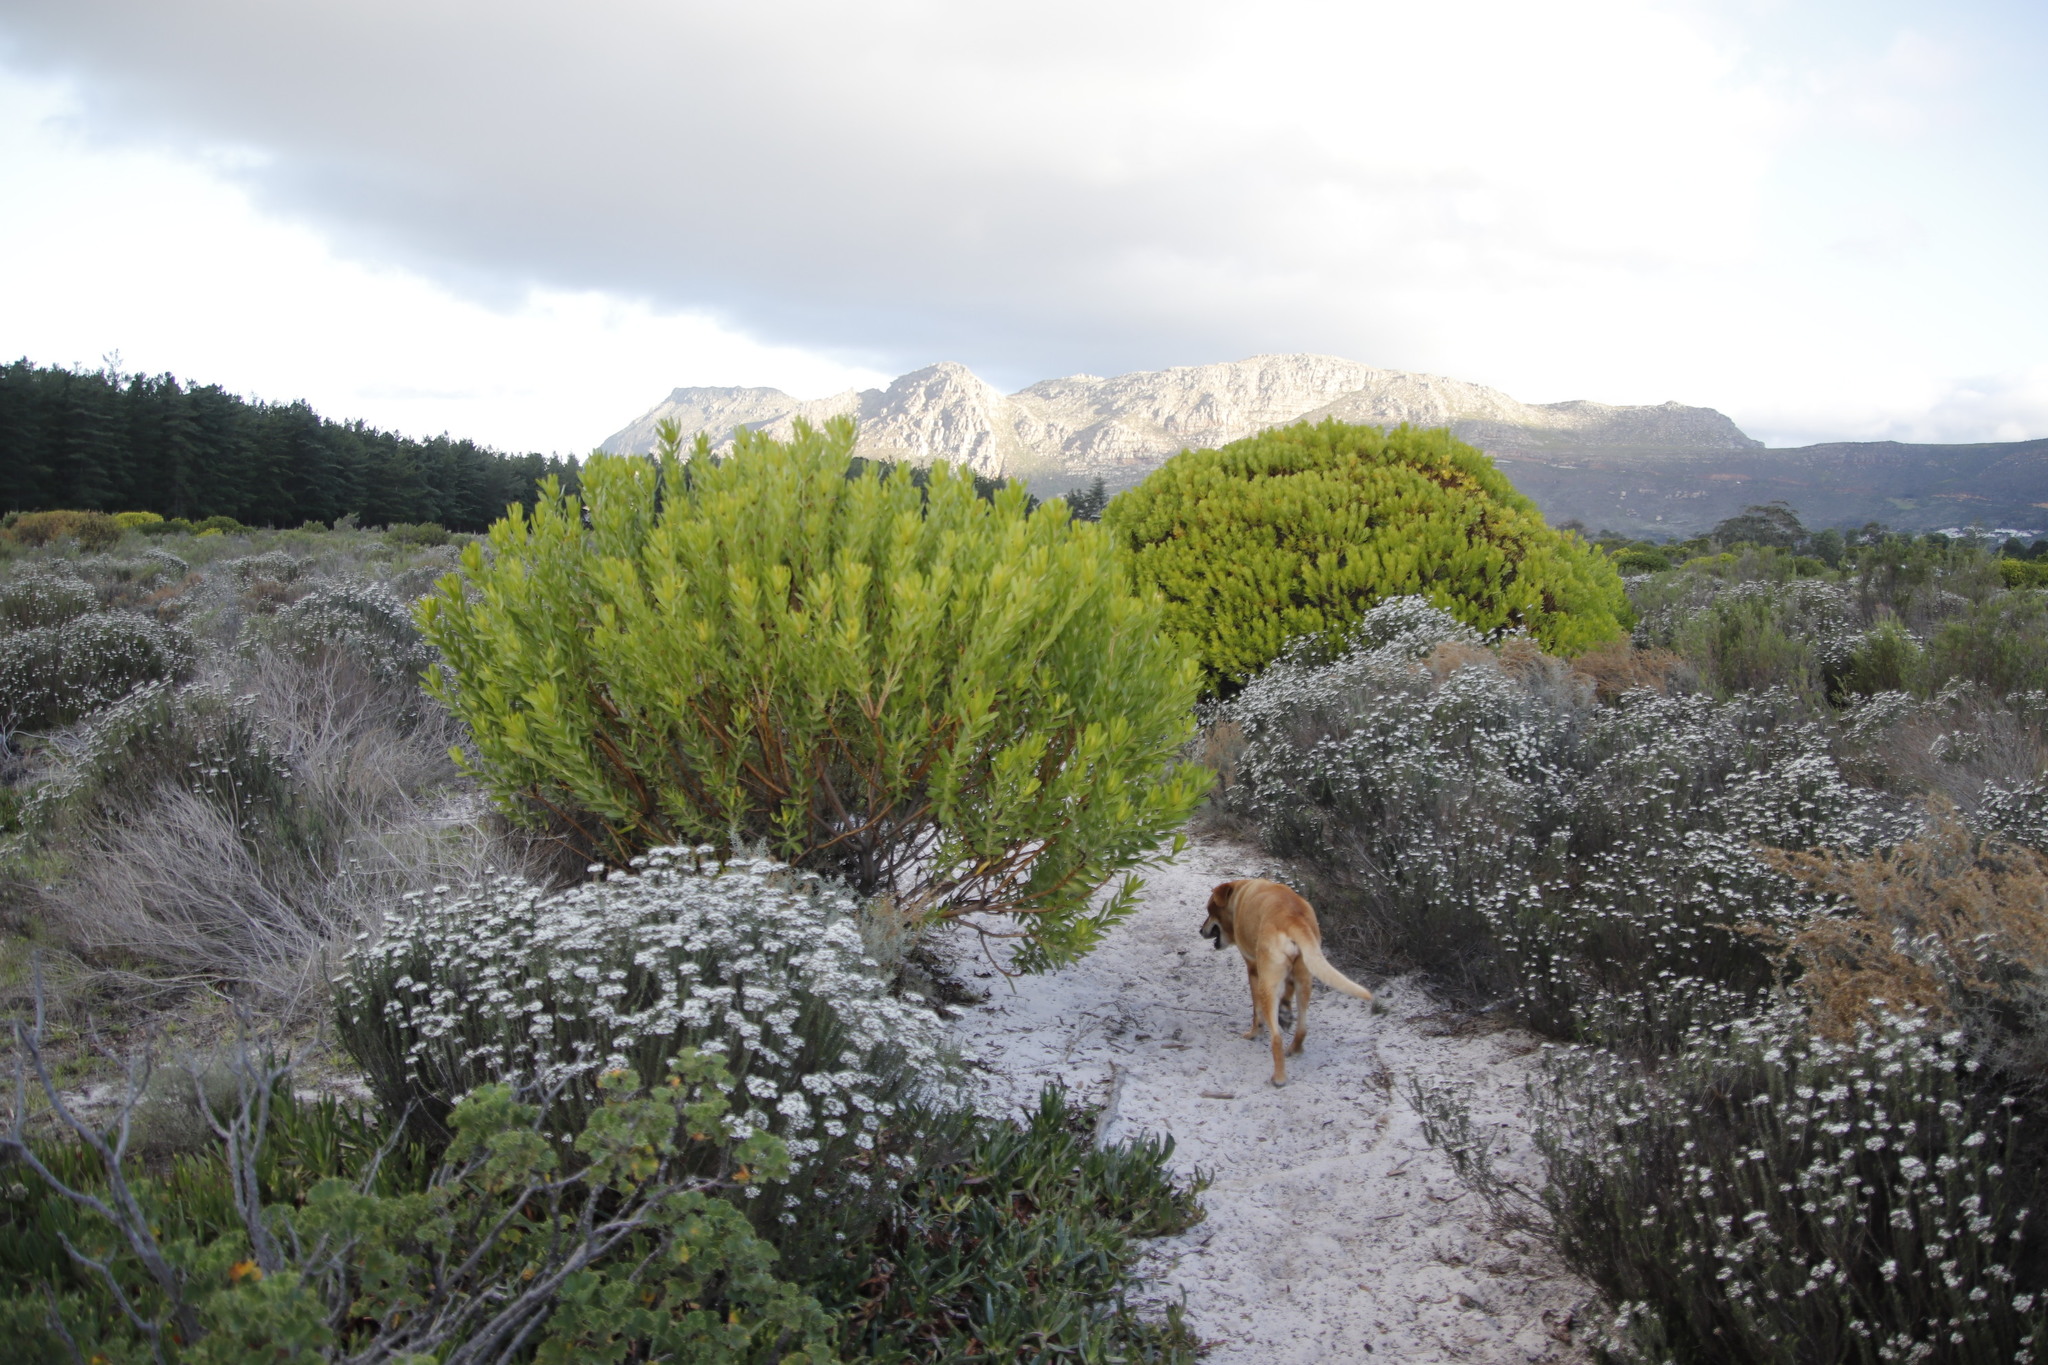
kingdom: Plantae
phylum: Tracheophyta
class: Magnoliopsida
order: Proteales
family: Proteaceae
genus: Leucadendron
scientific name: Leucadendron laureolum
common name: Golden sunshinebush
